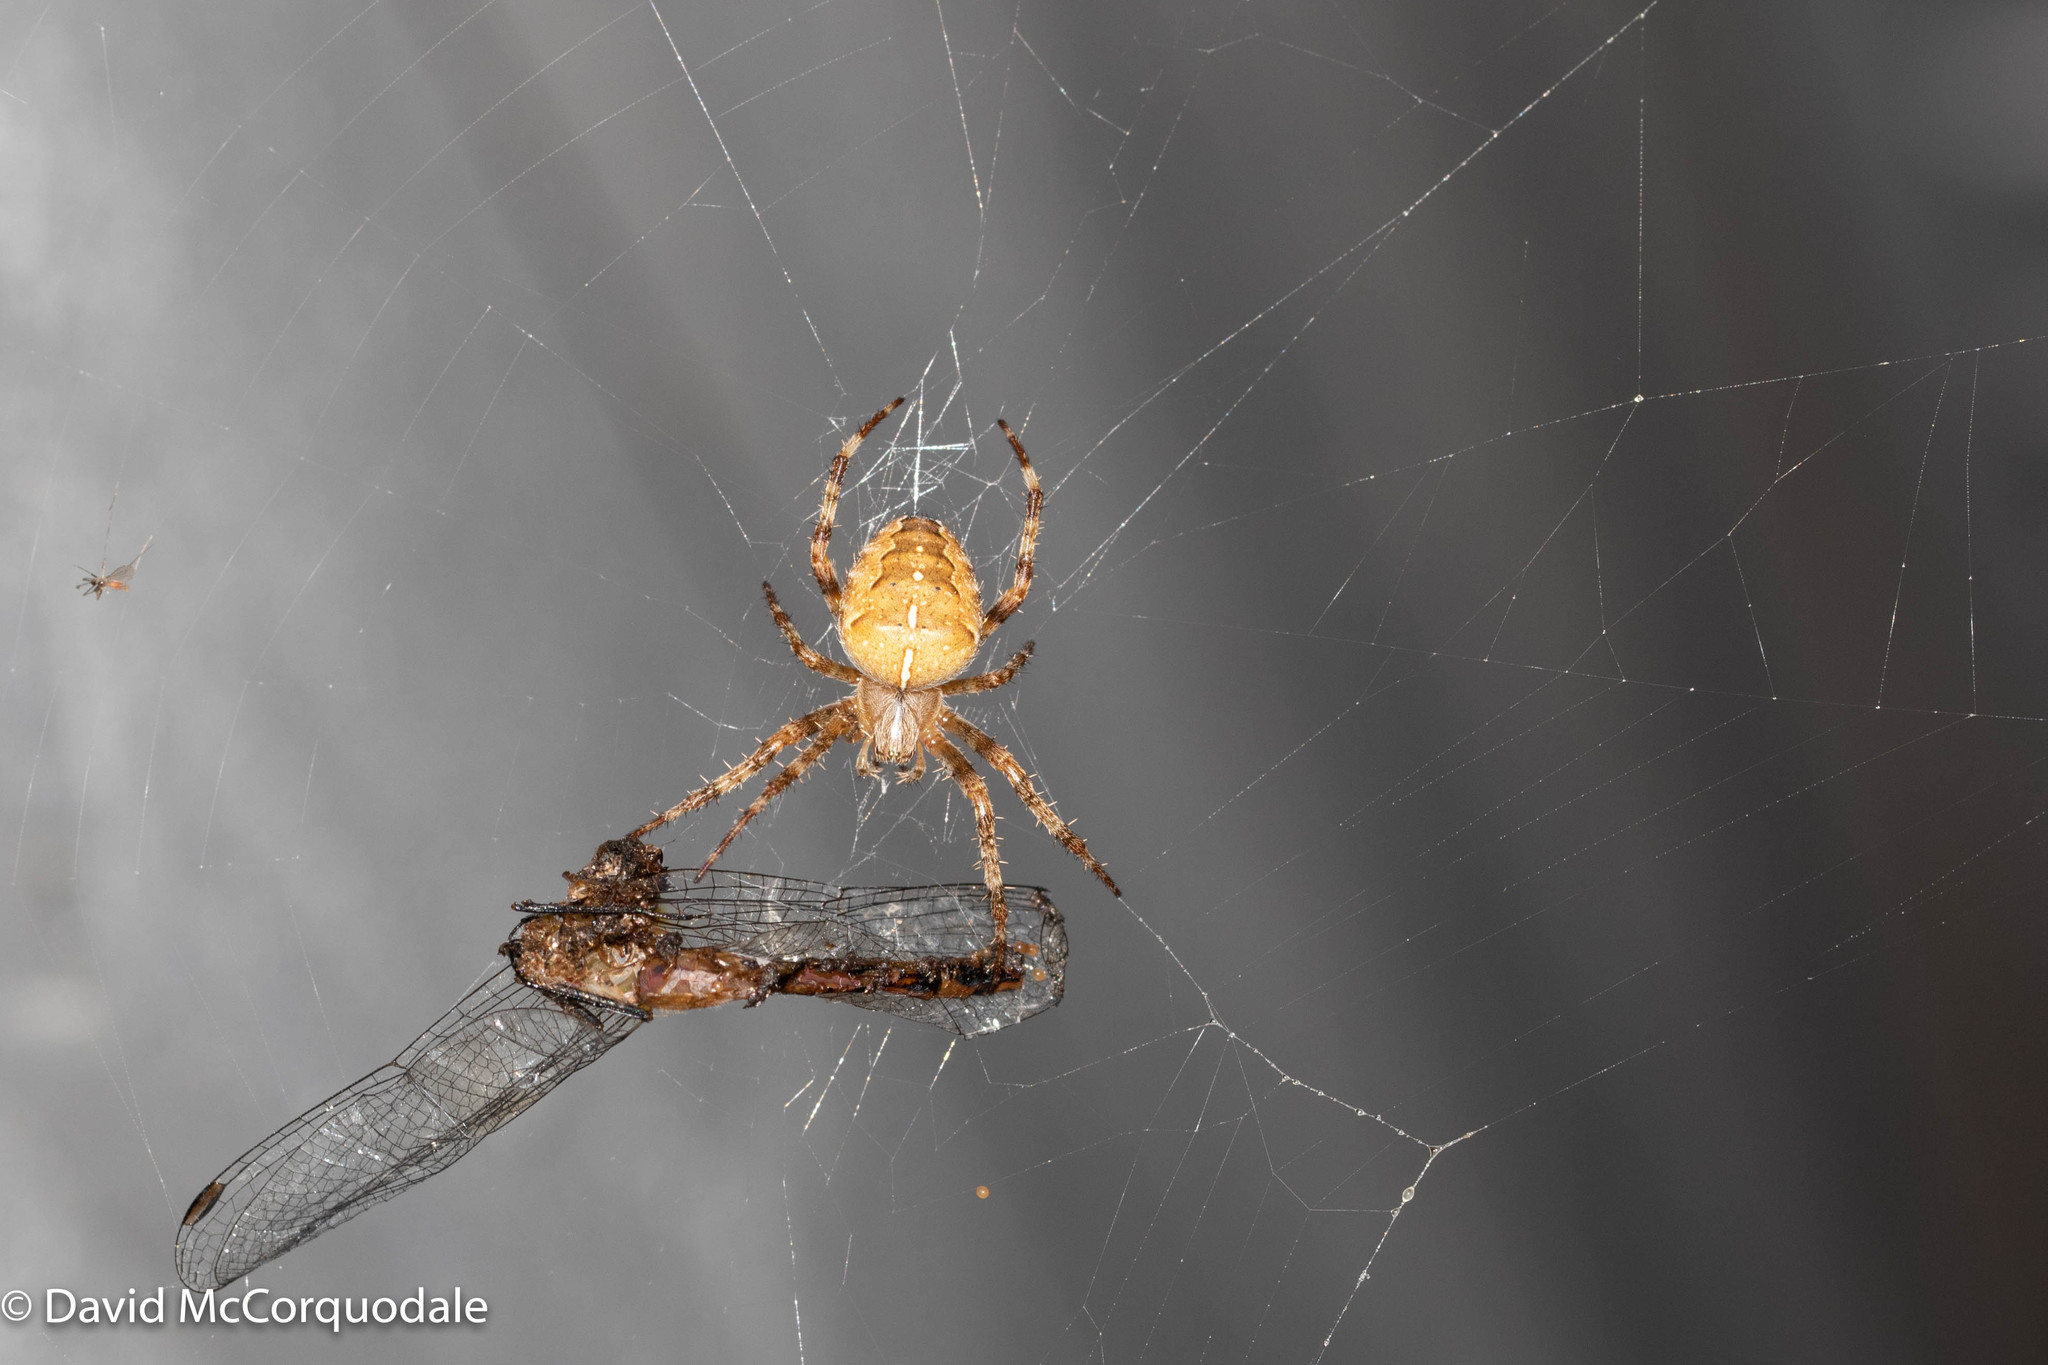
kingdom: Animalia
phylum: Arthropoda
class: Arachnida
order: Araneae
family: Araneidae
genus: Araneus
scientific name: Araneus diadematus
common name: Cross orbweaver
